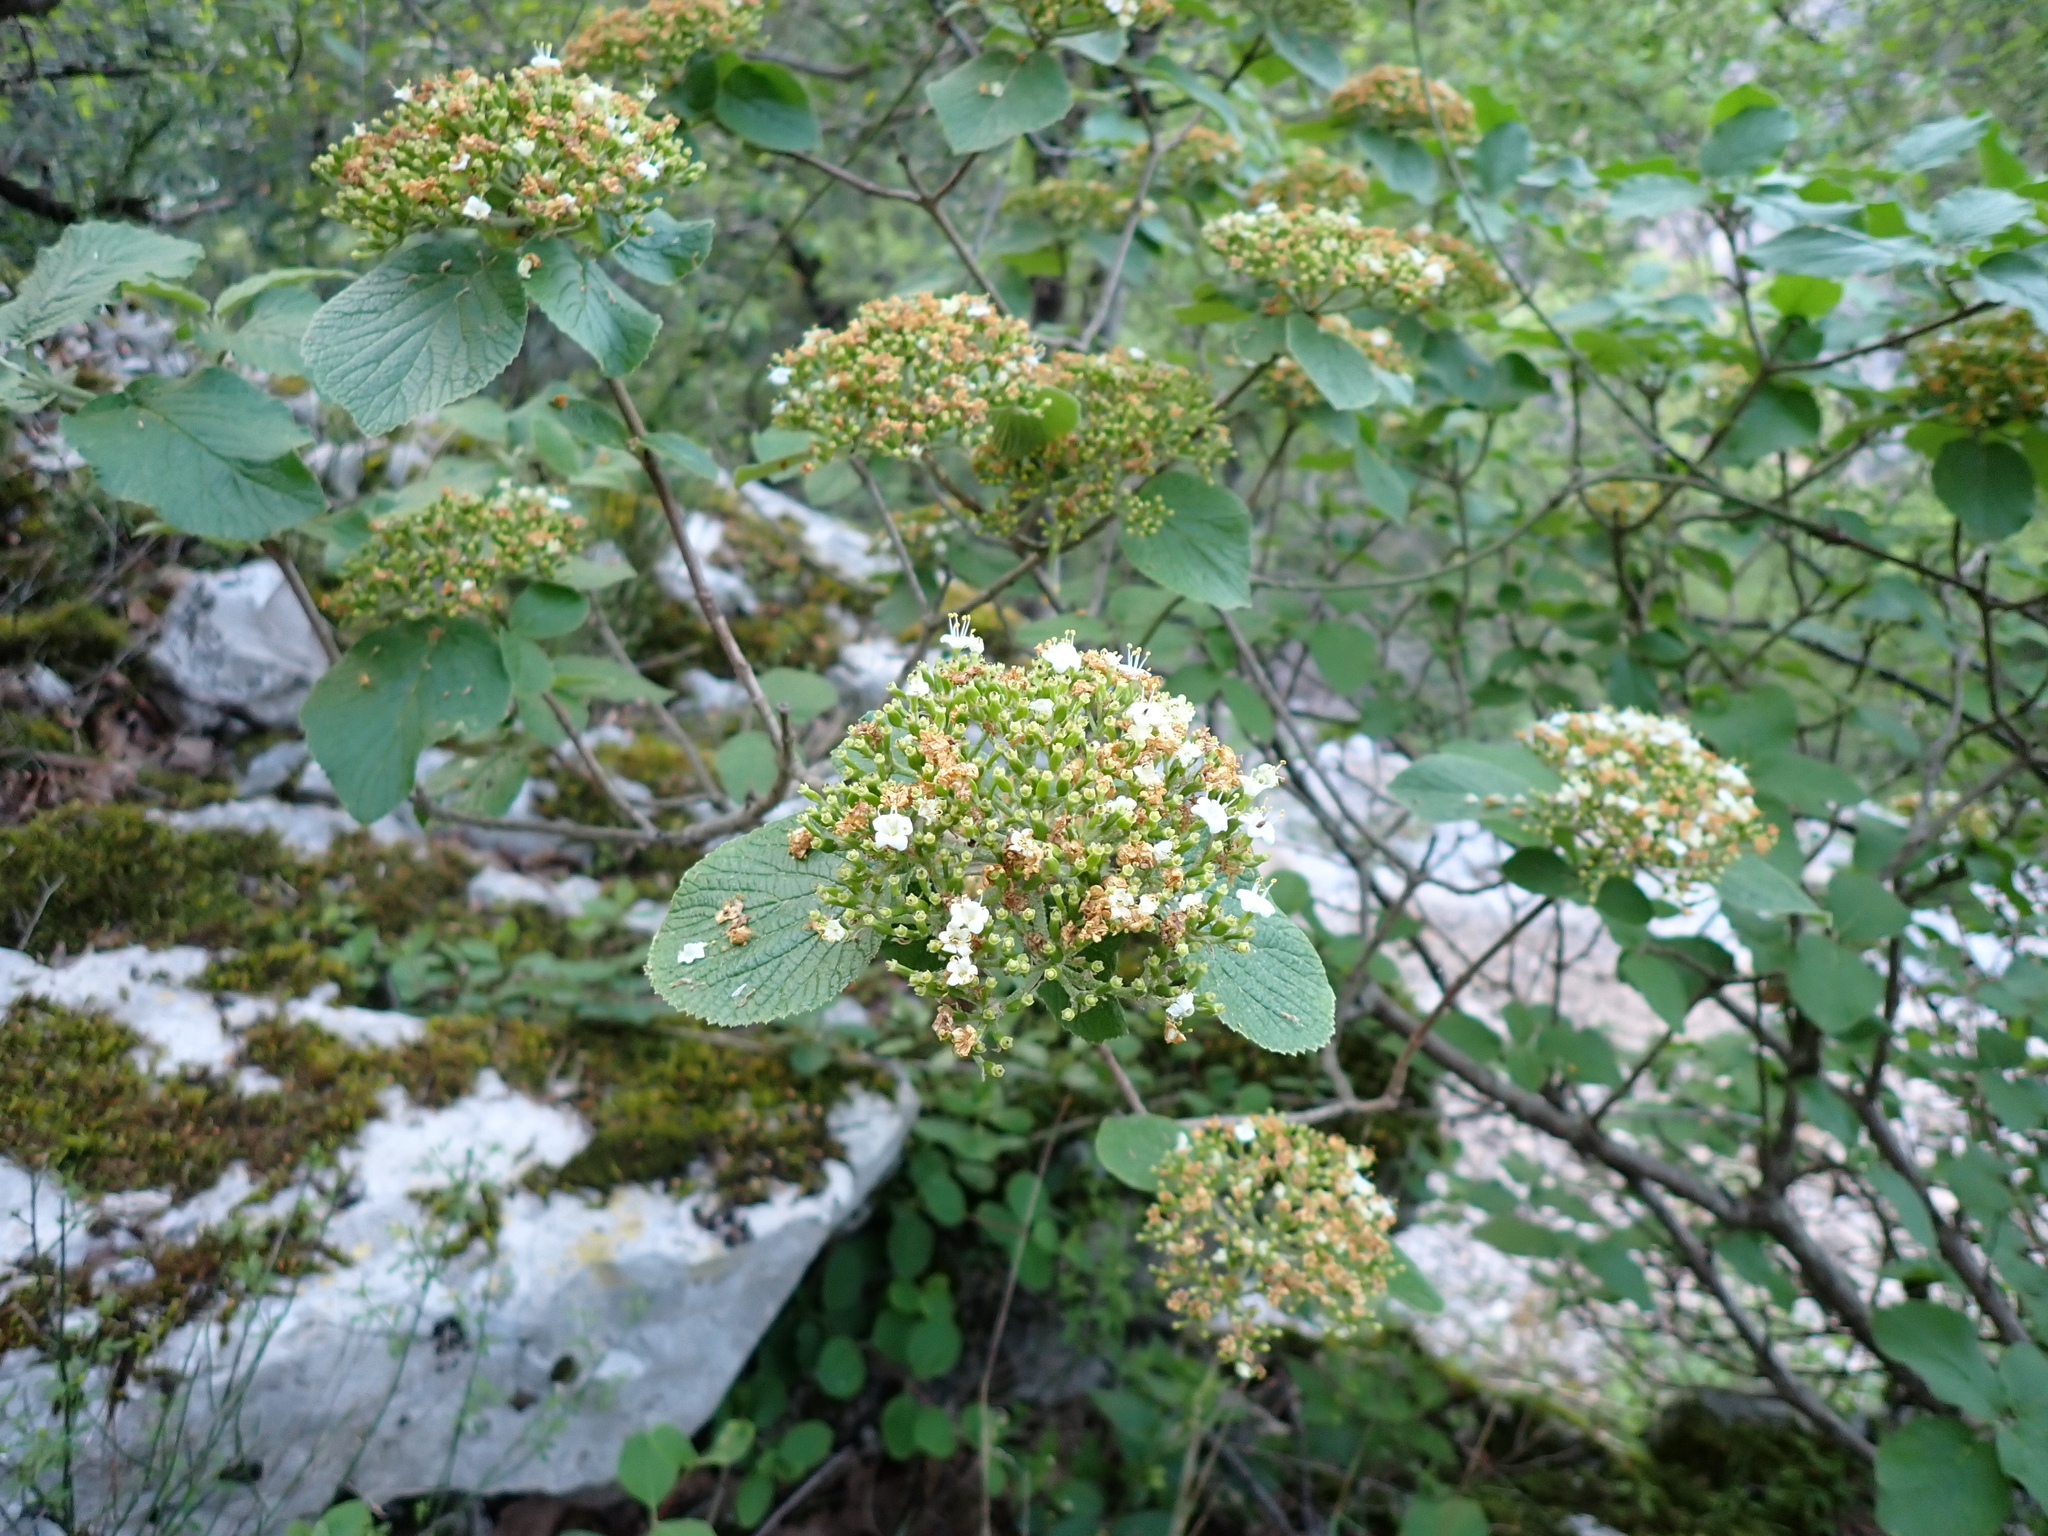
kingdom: Plantae
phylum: Tracheophyta
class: Magnoliopsida
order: Dipsacales
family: Viburnaceae
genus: Viburnum
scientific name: Viburnum lantana
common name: Wayfaring tree
